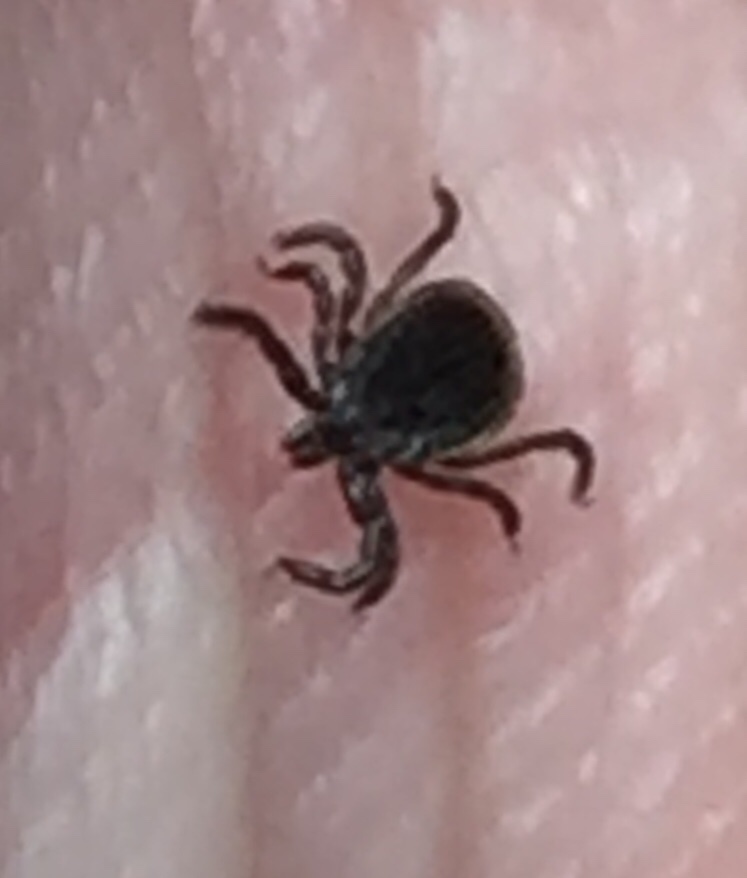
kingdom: Animalia
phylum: Arthropoda
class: Arachnida
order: Ixodida
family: Ixodidae
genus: Ixodes
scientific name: Ixodes scapularis
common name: Black legged tick
